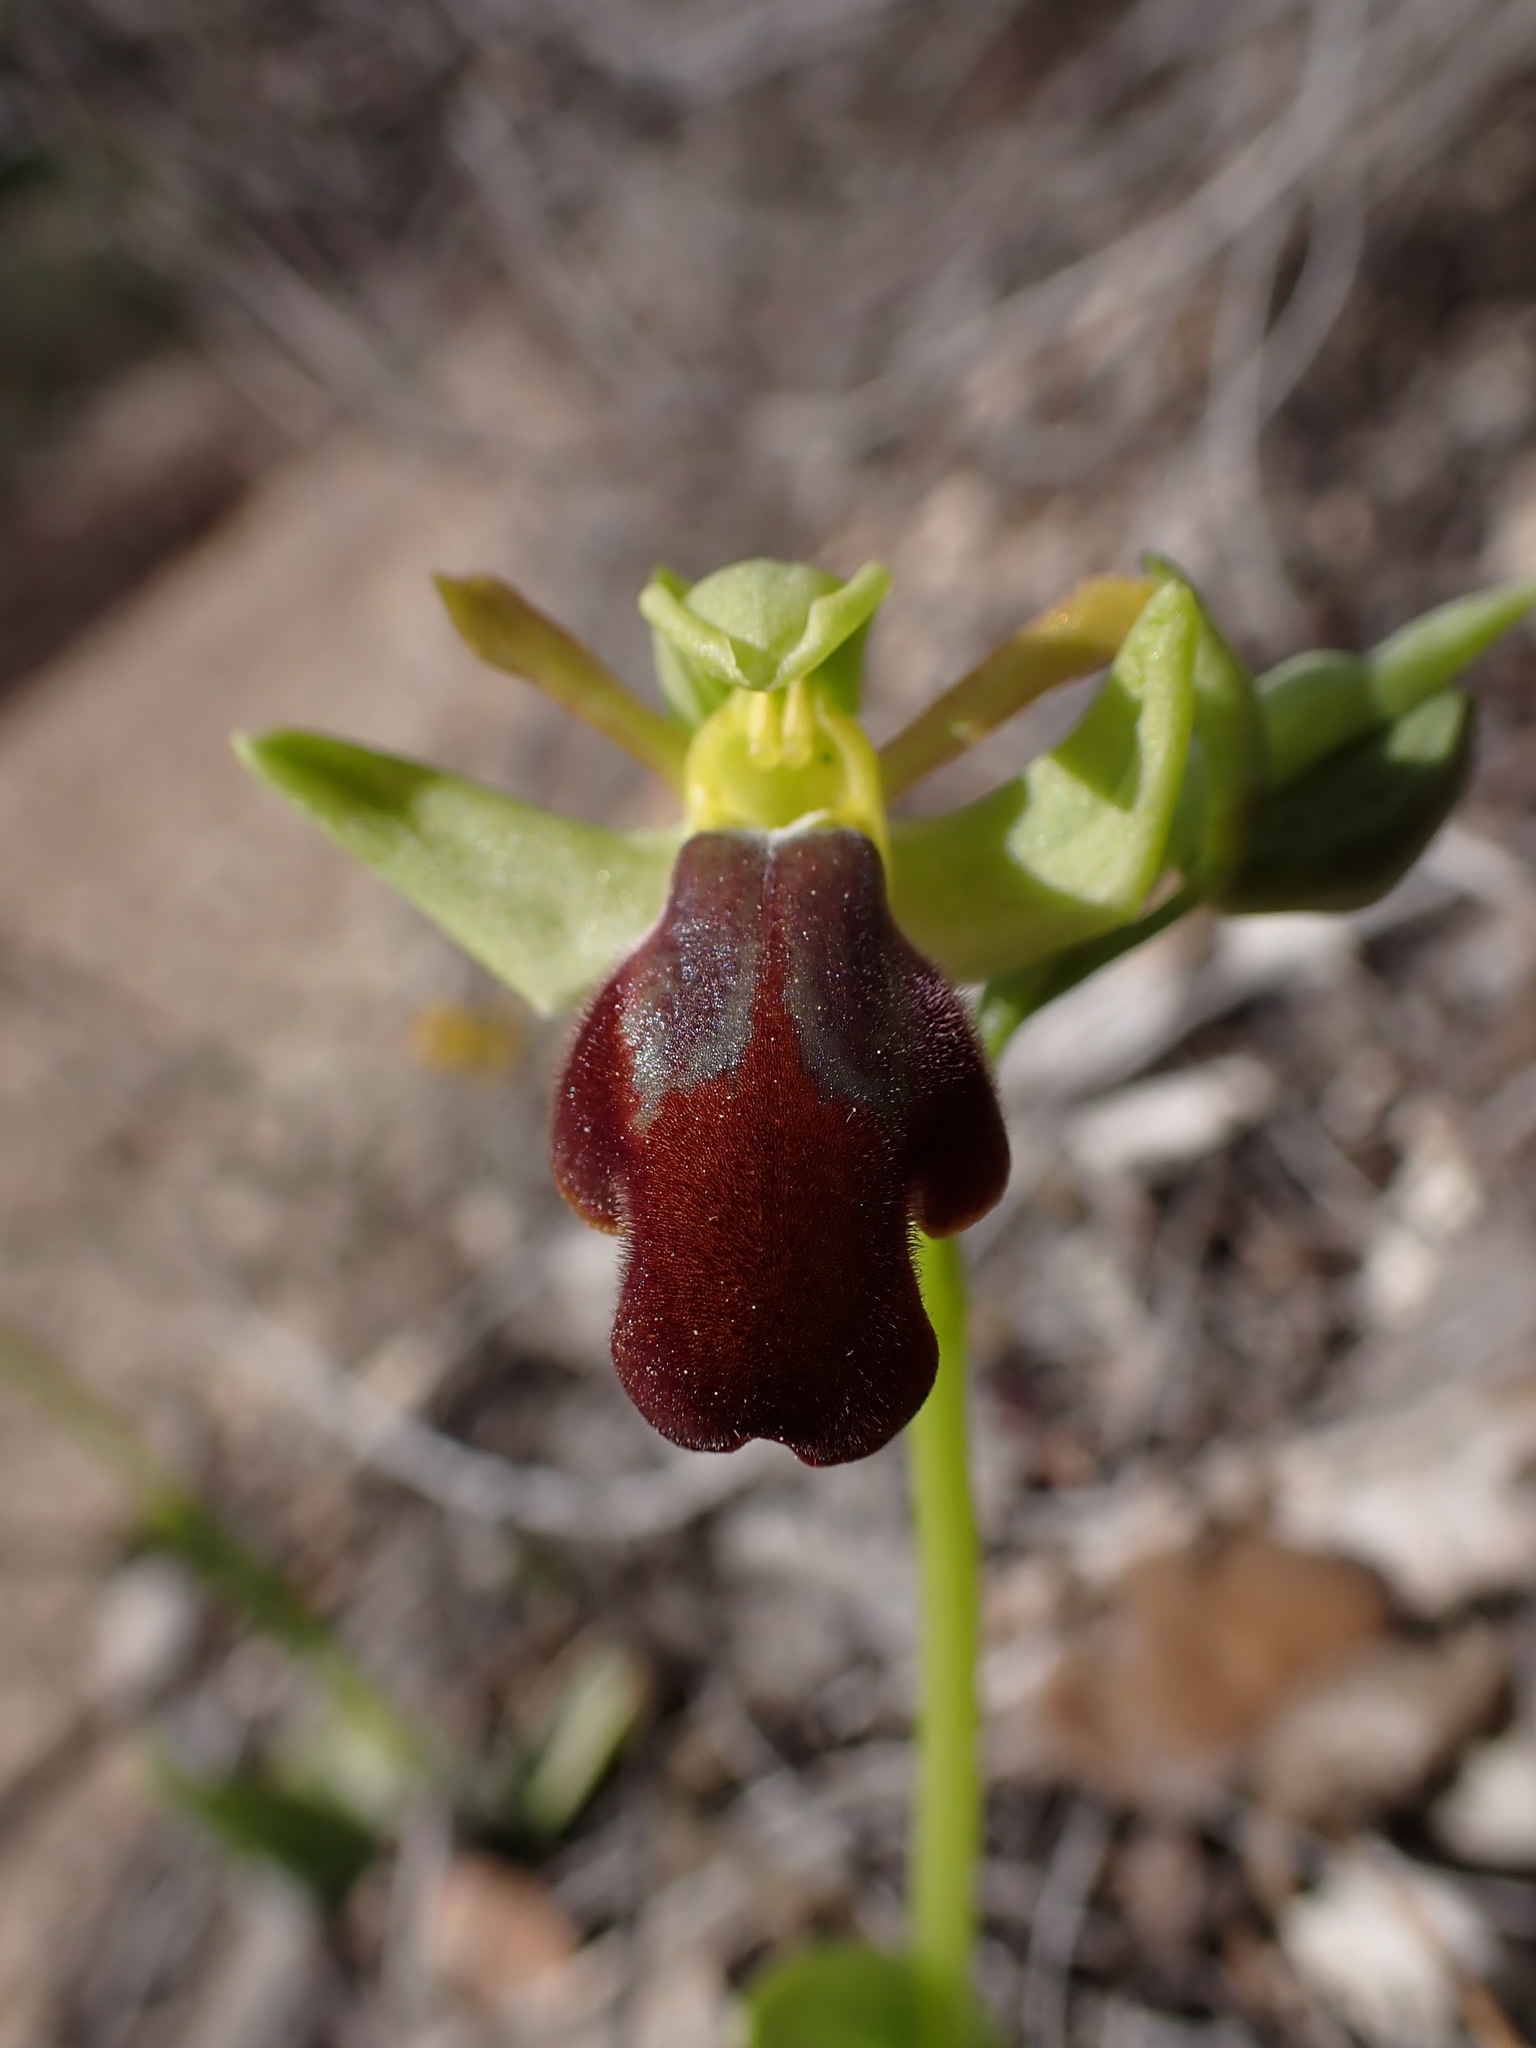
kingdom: Plantae
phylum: Tracheophyta
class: Liliopsida
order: Asparagales
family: Orchidaceae
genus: Ophrys
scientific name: Ophrys fusca
